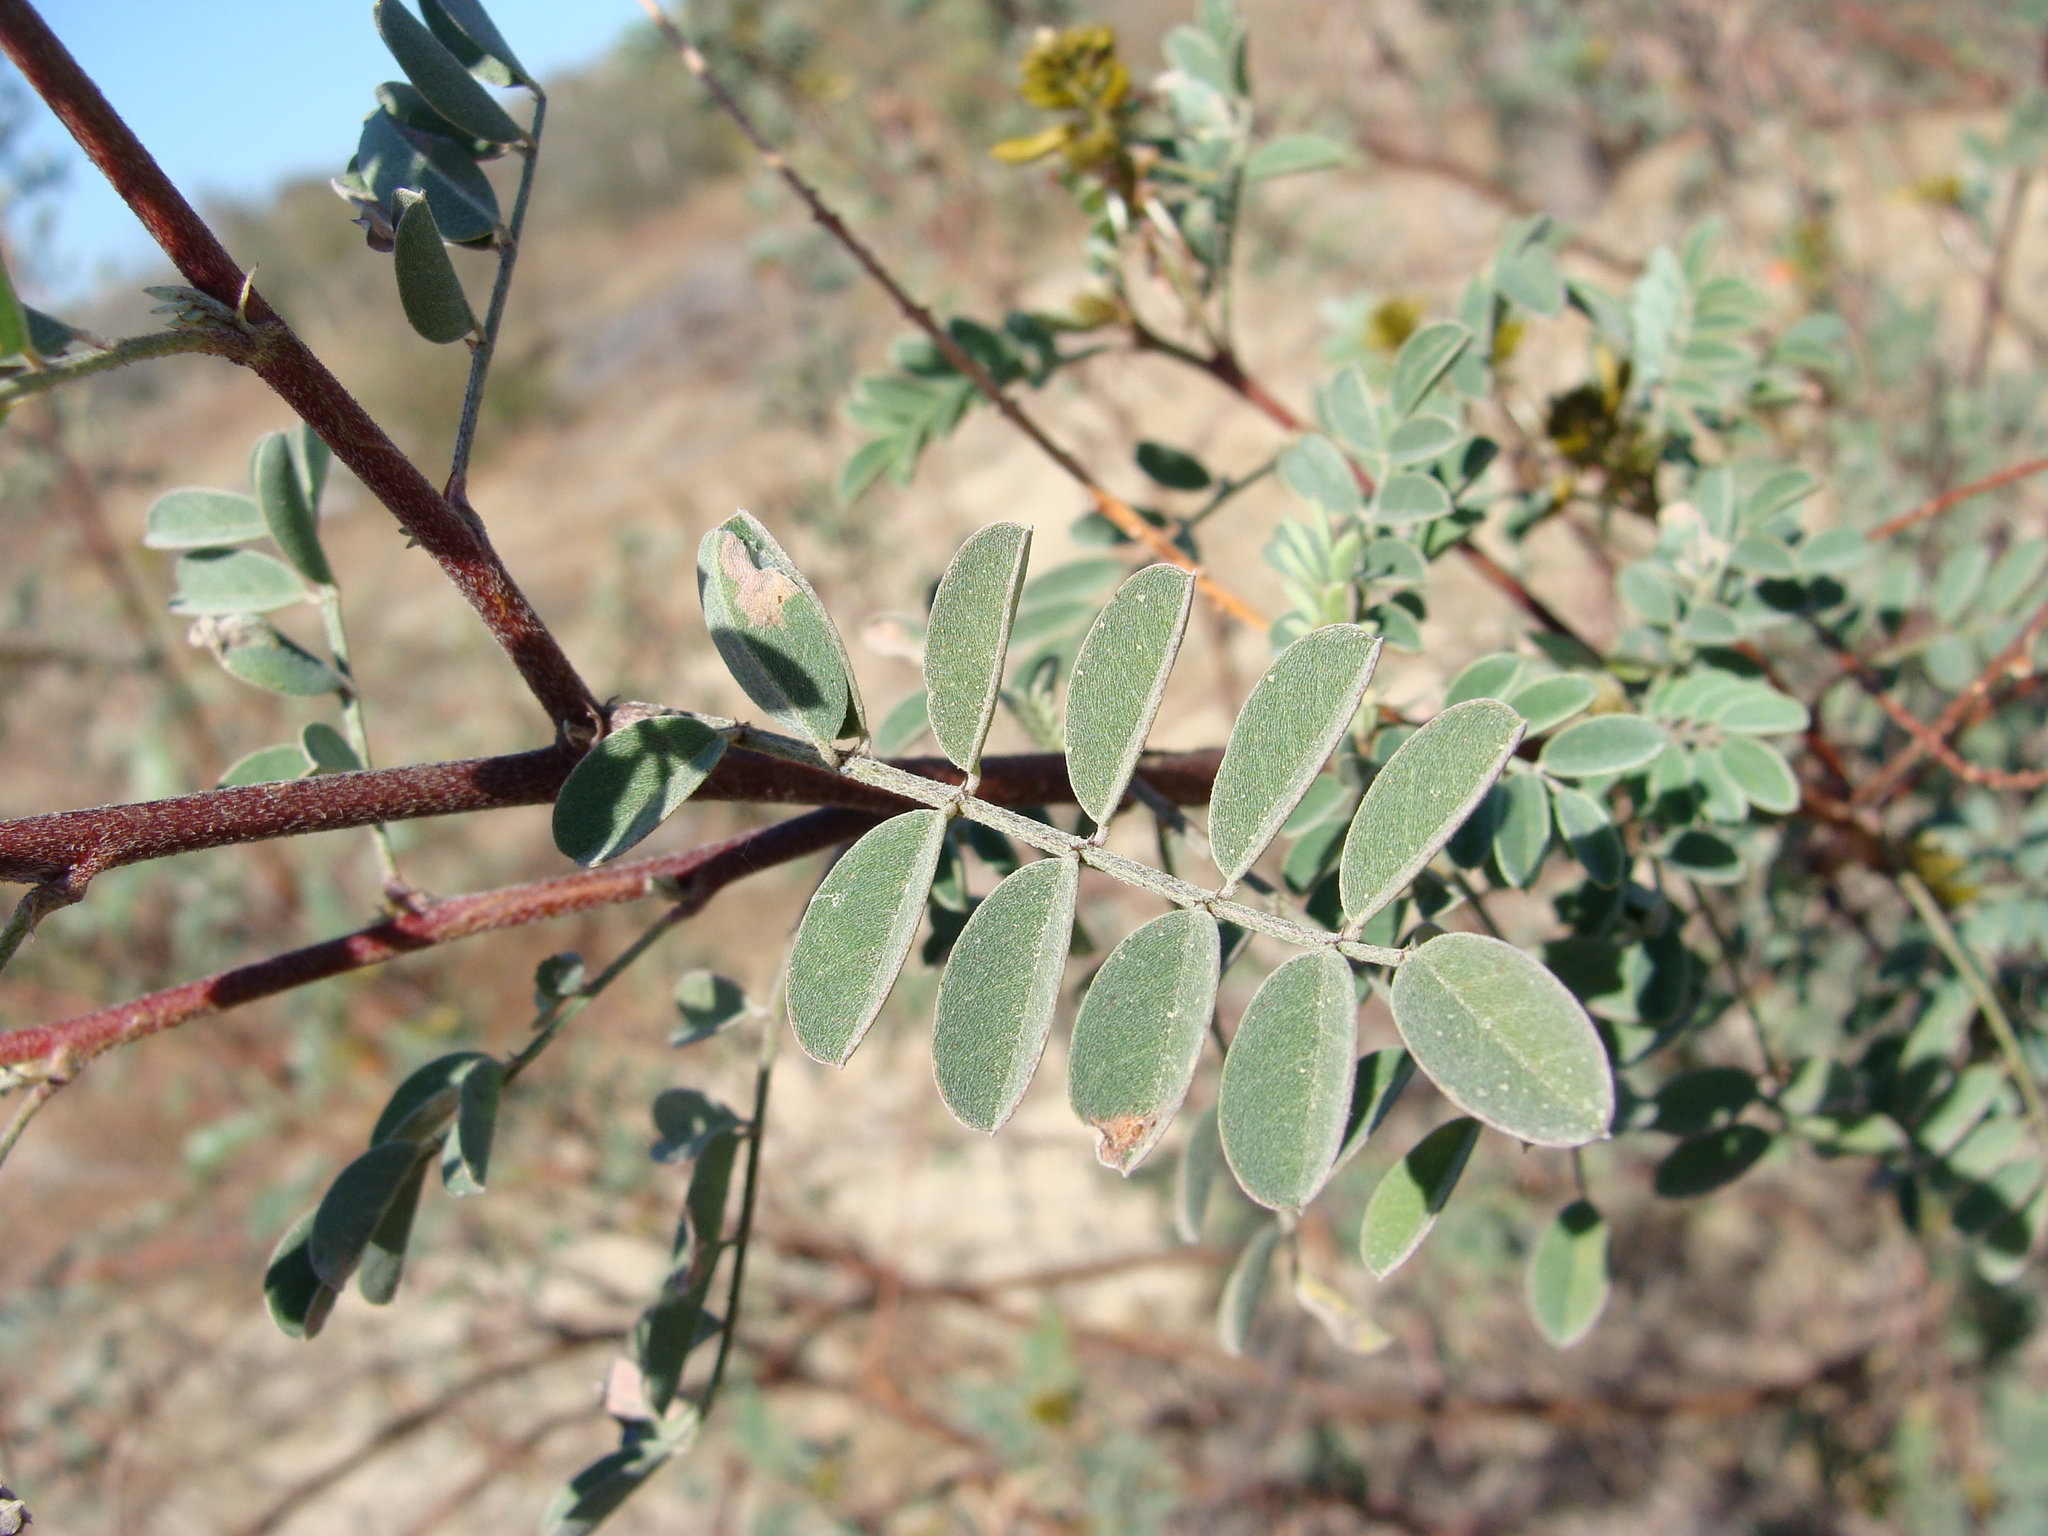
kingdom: Plantae
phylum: Tracheophyta
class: Magnoliopsida
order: Fabales
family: Fabaceae
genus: Indigofera
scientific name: Indigofera fruticosa
